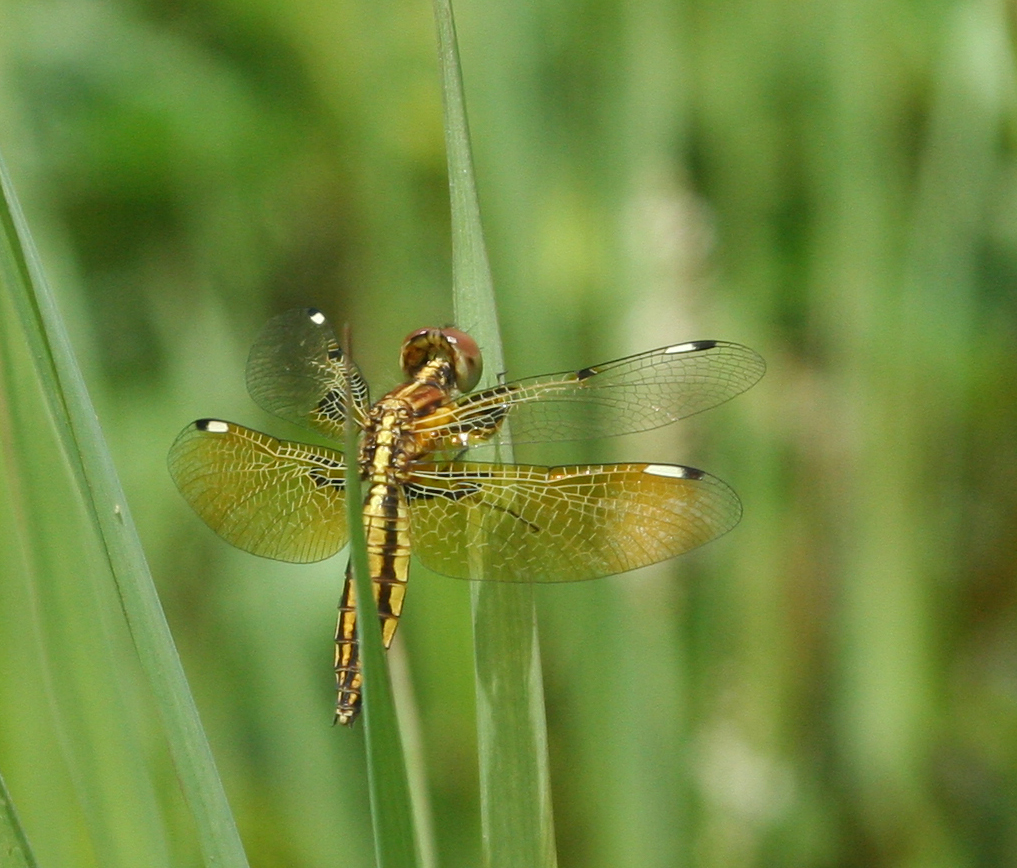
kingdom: Animalia
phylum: Arthropoda
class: Insecta
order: Odonata
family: Libellulidae
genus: Palpopleura
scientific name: Palpopleura sexmaculata
